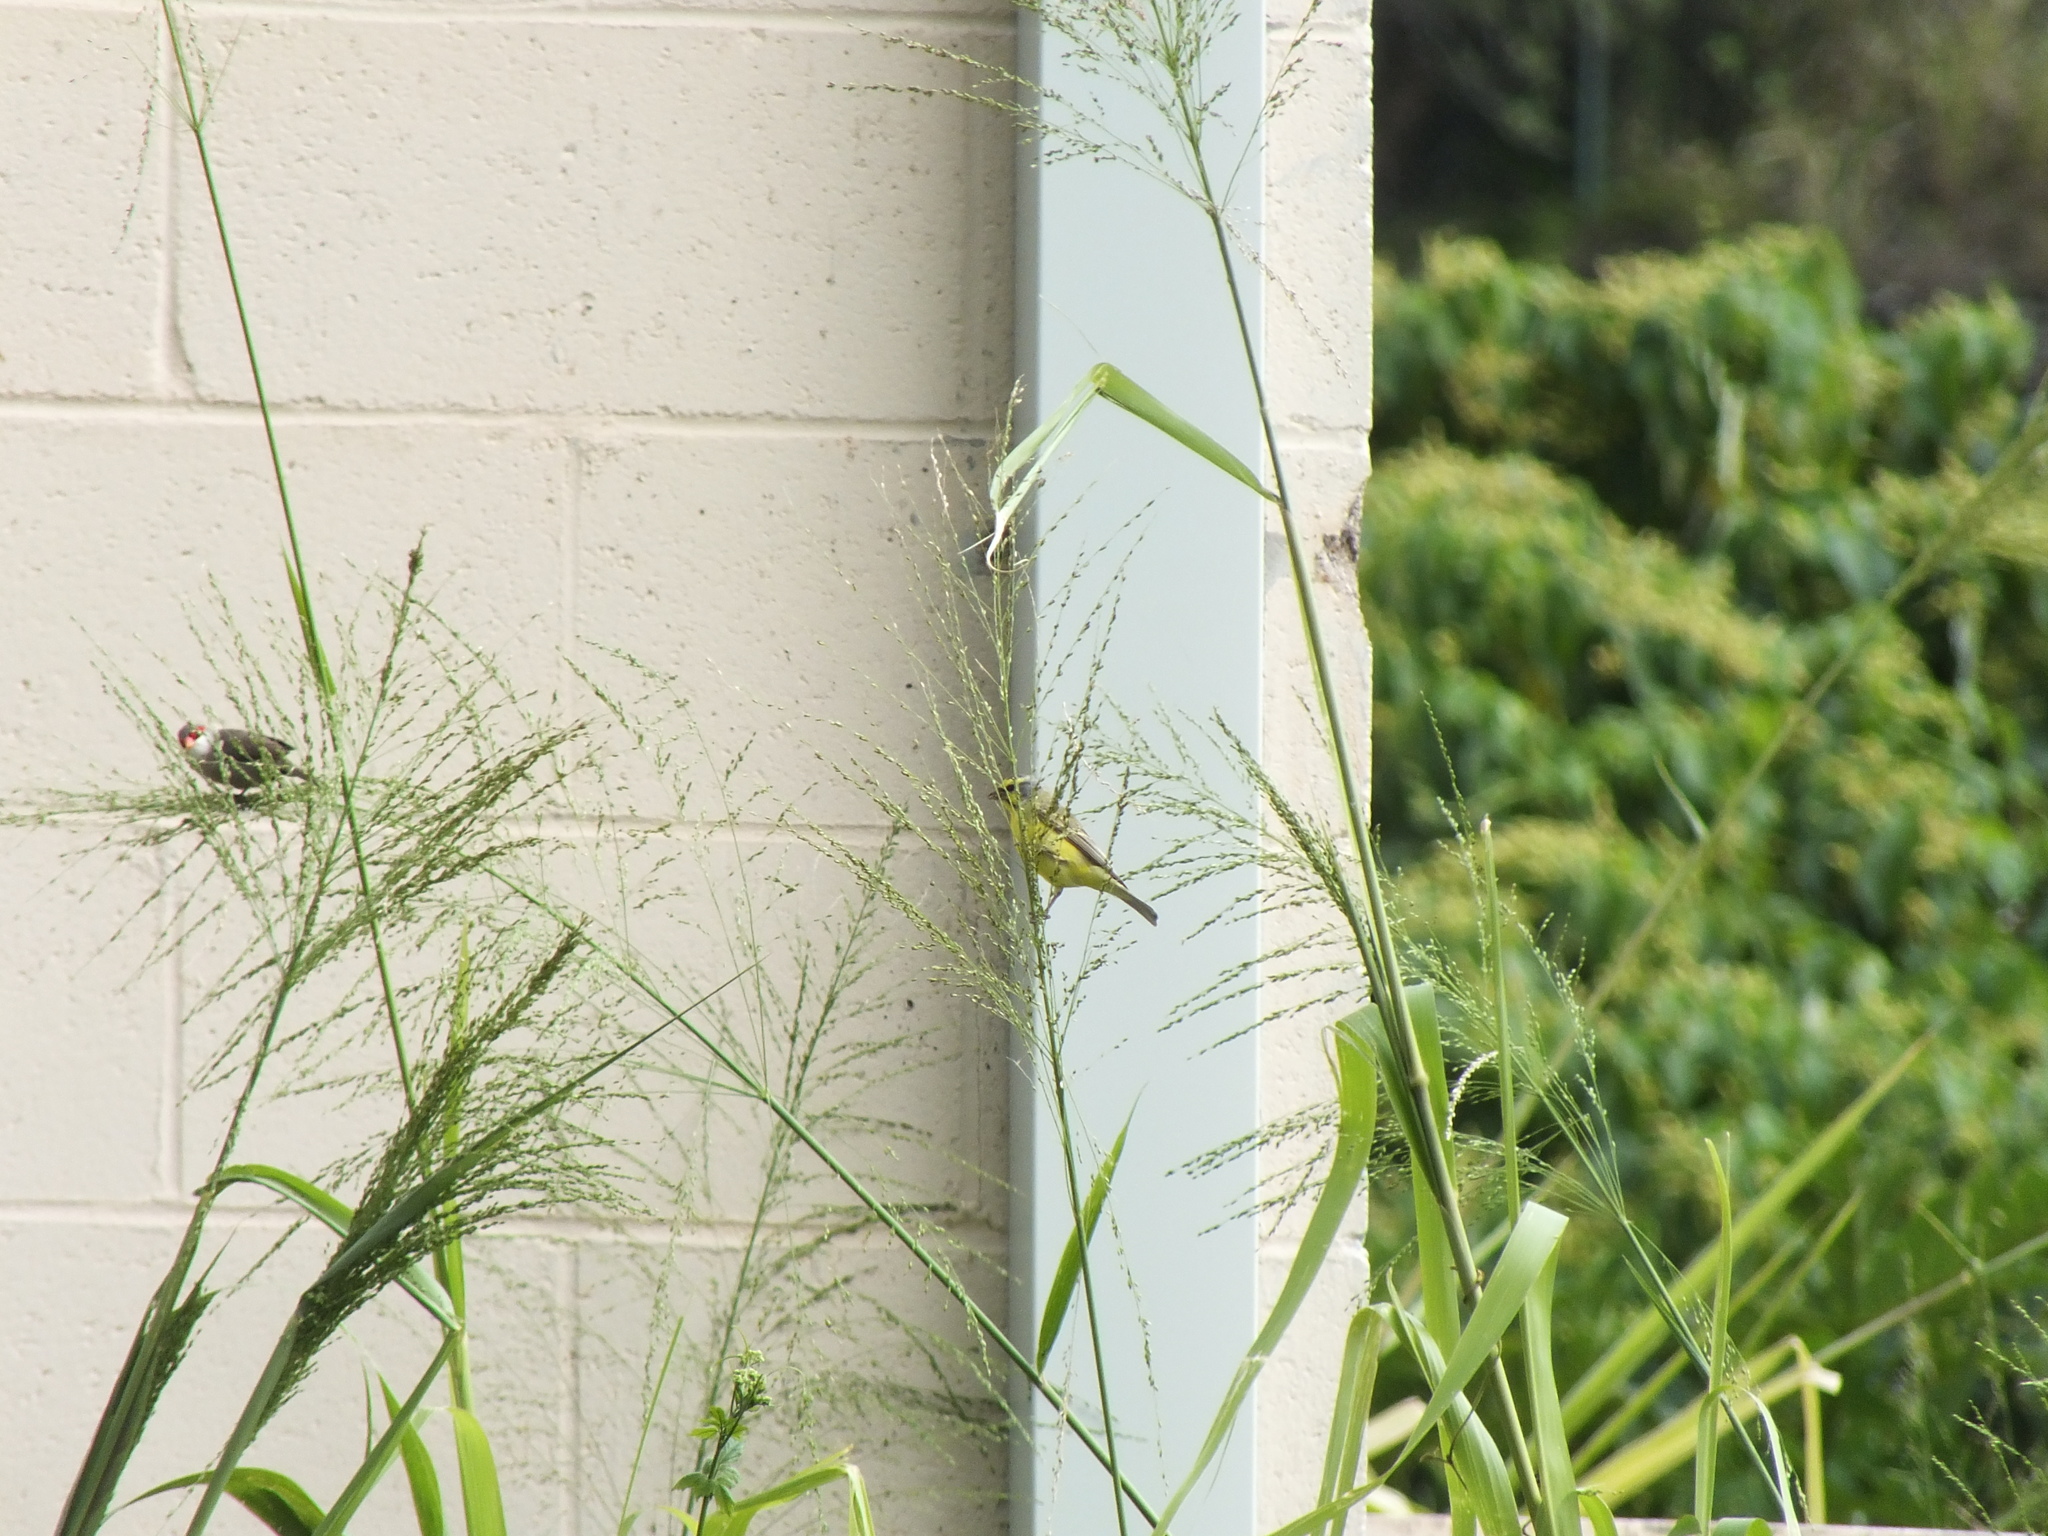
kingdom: Animalia
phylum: Chordata
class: Aves
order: Passeriformes
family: Fringillidae
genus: Crithagra
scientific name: Crithagra mozambica
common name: Yellow-fronted canary
